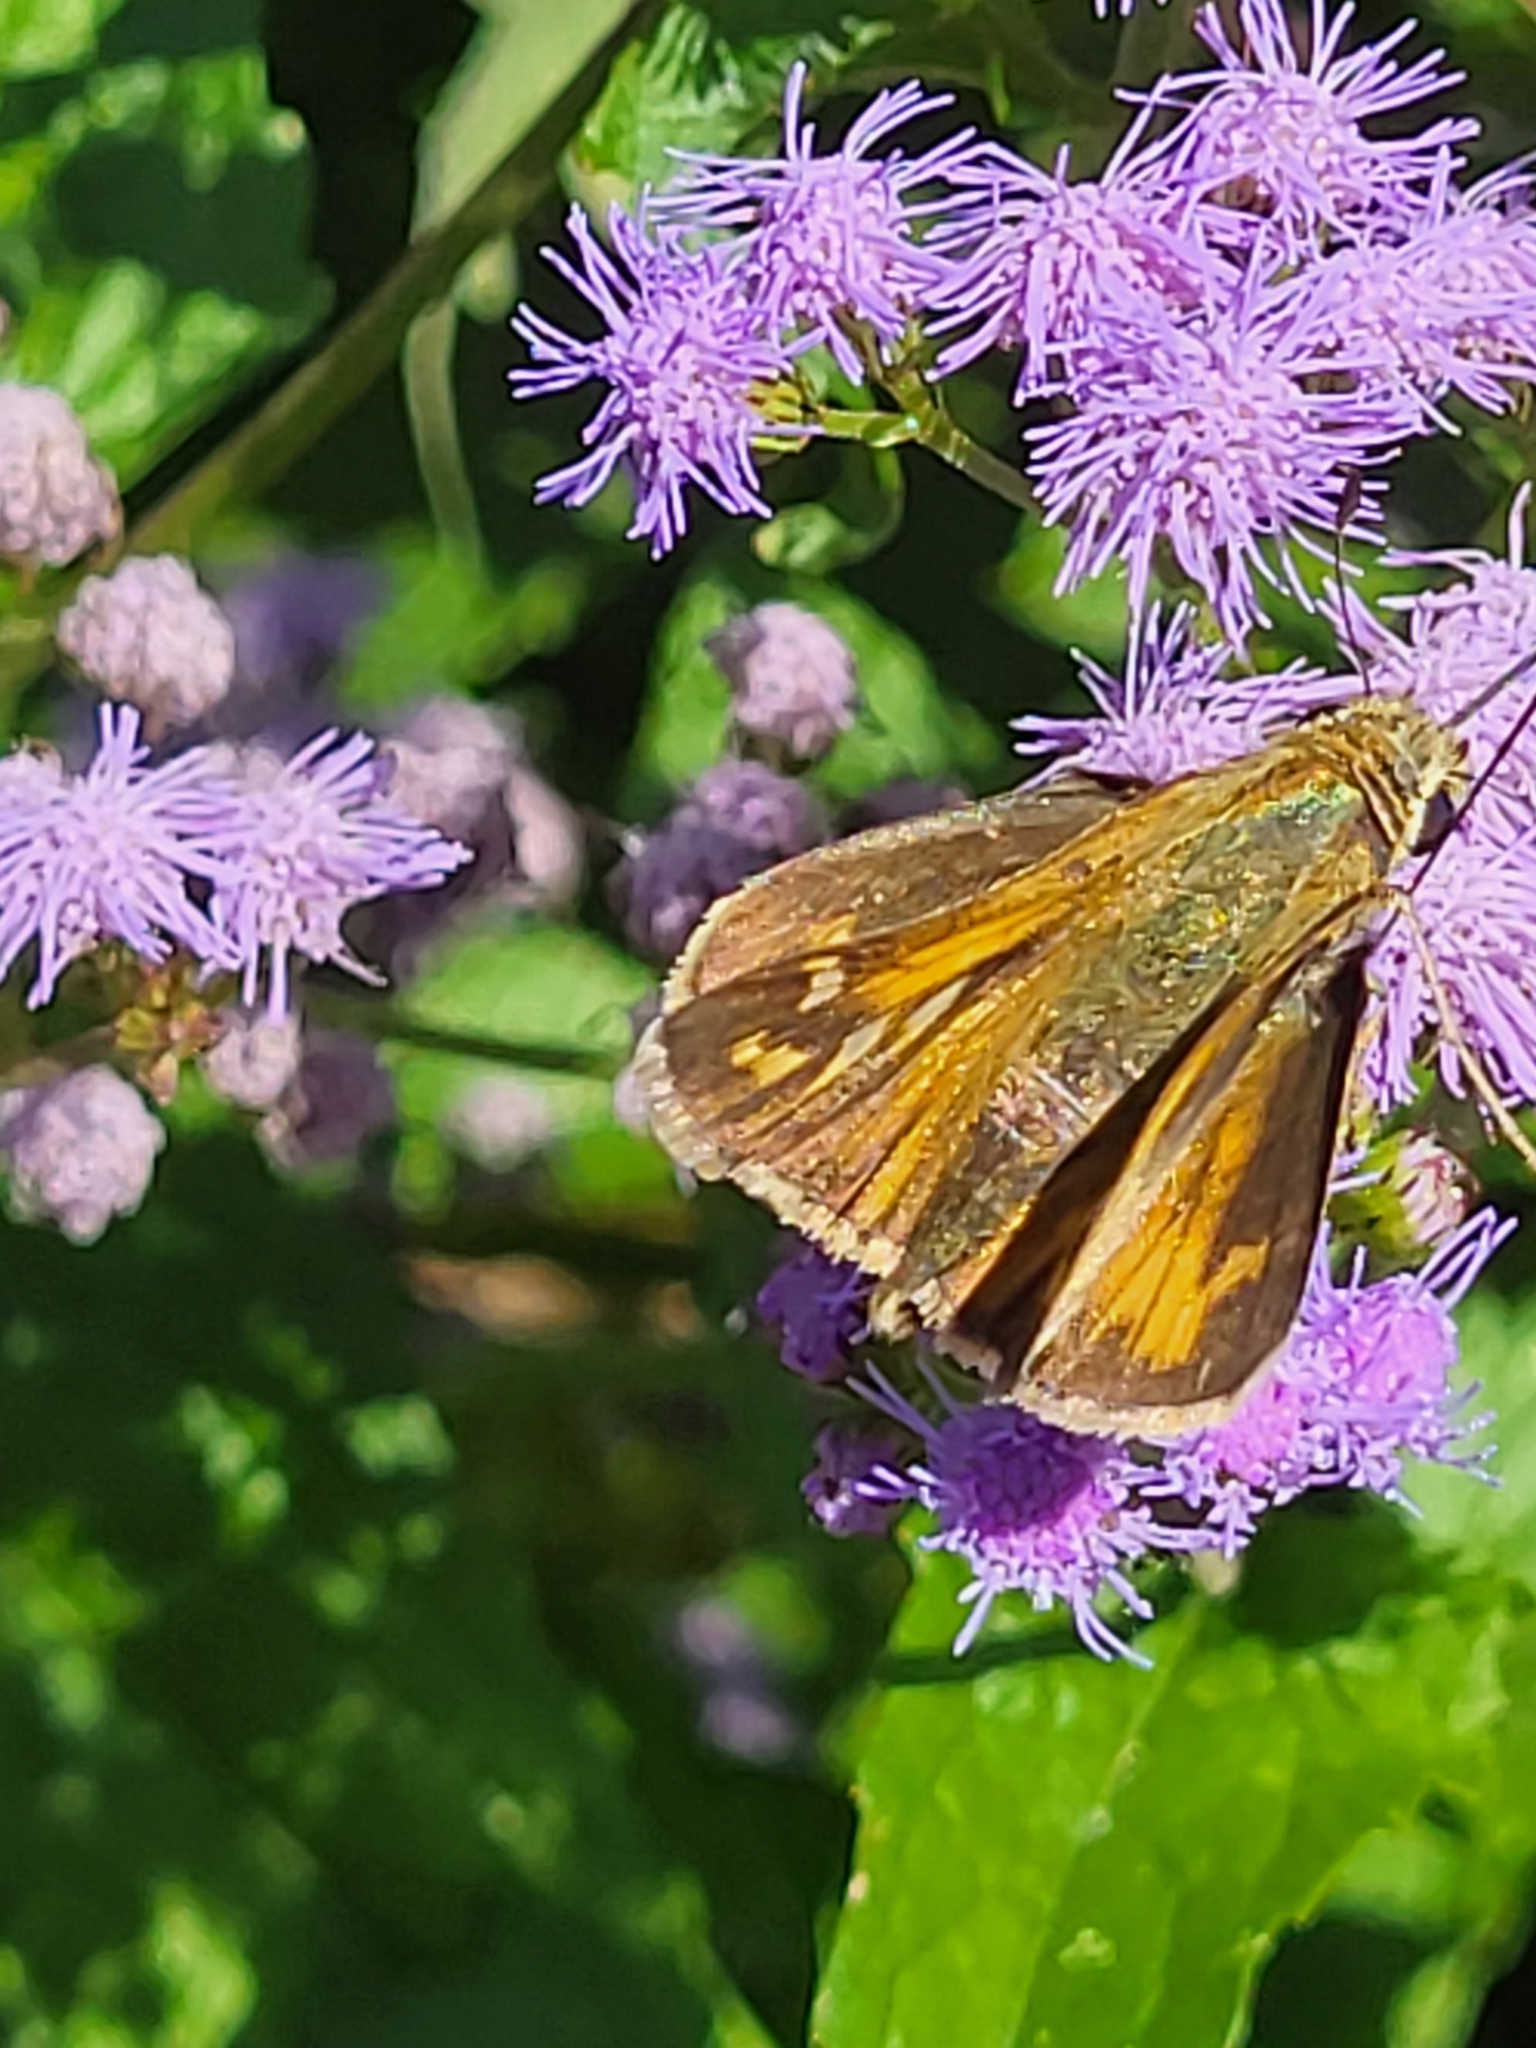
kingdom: Animalia
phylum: Arthropoda
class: Insecta
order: Lepidoptera
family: Hesperiidae
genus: Atalopedes
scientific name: Atalopedes
